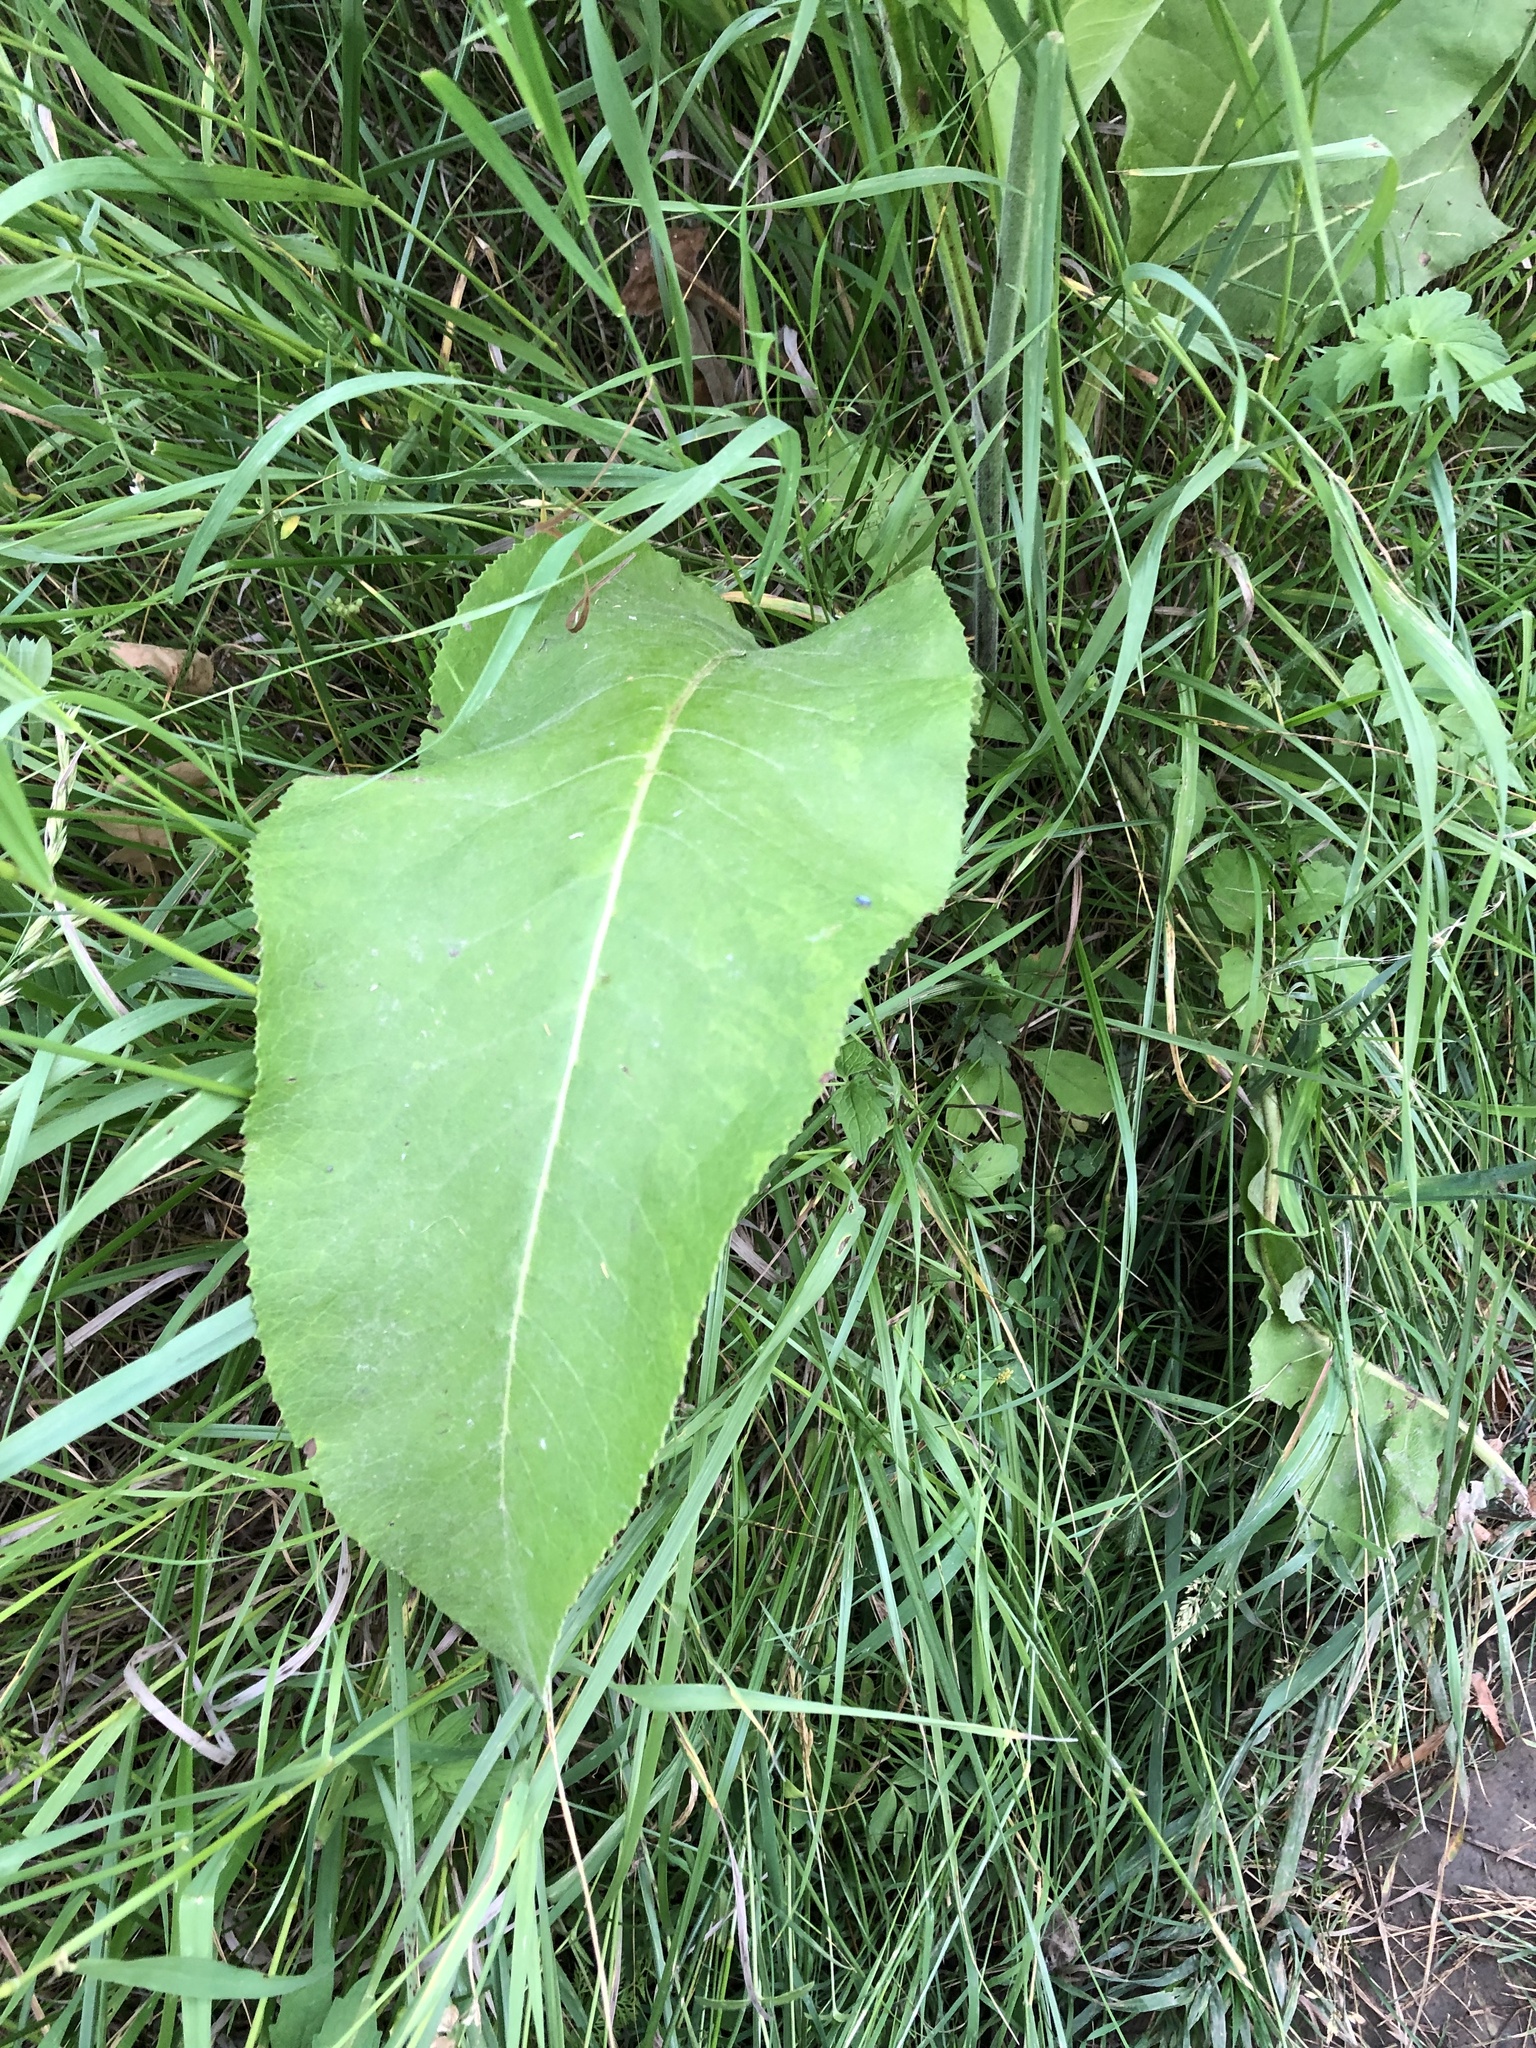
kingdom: Plantae
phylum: Tracheophyta
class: Magnoliopsida
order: Asterales
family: Asteraceae
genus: Inula
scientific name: Inula helenium
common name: Elecampane
